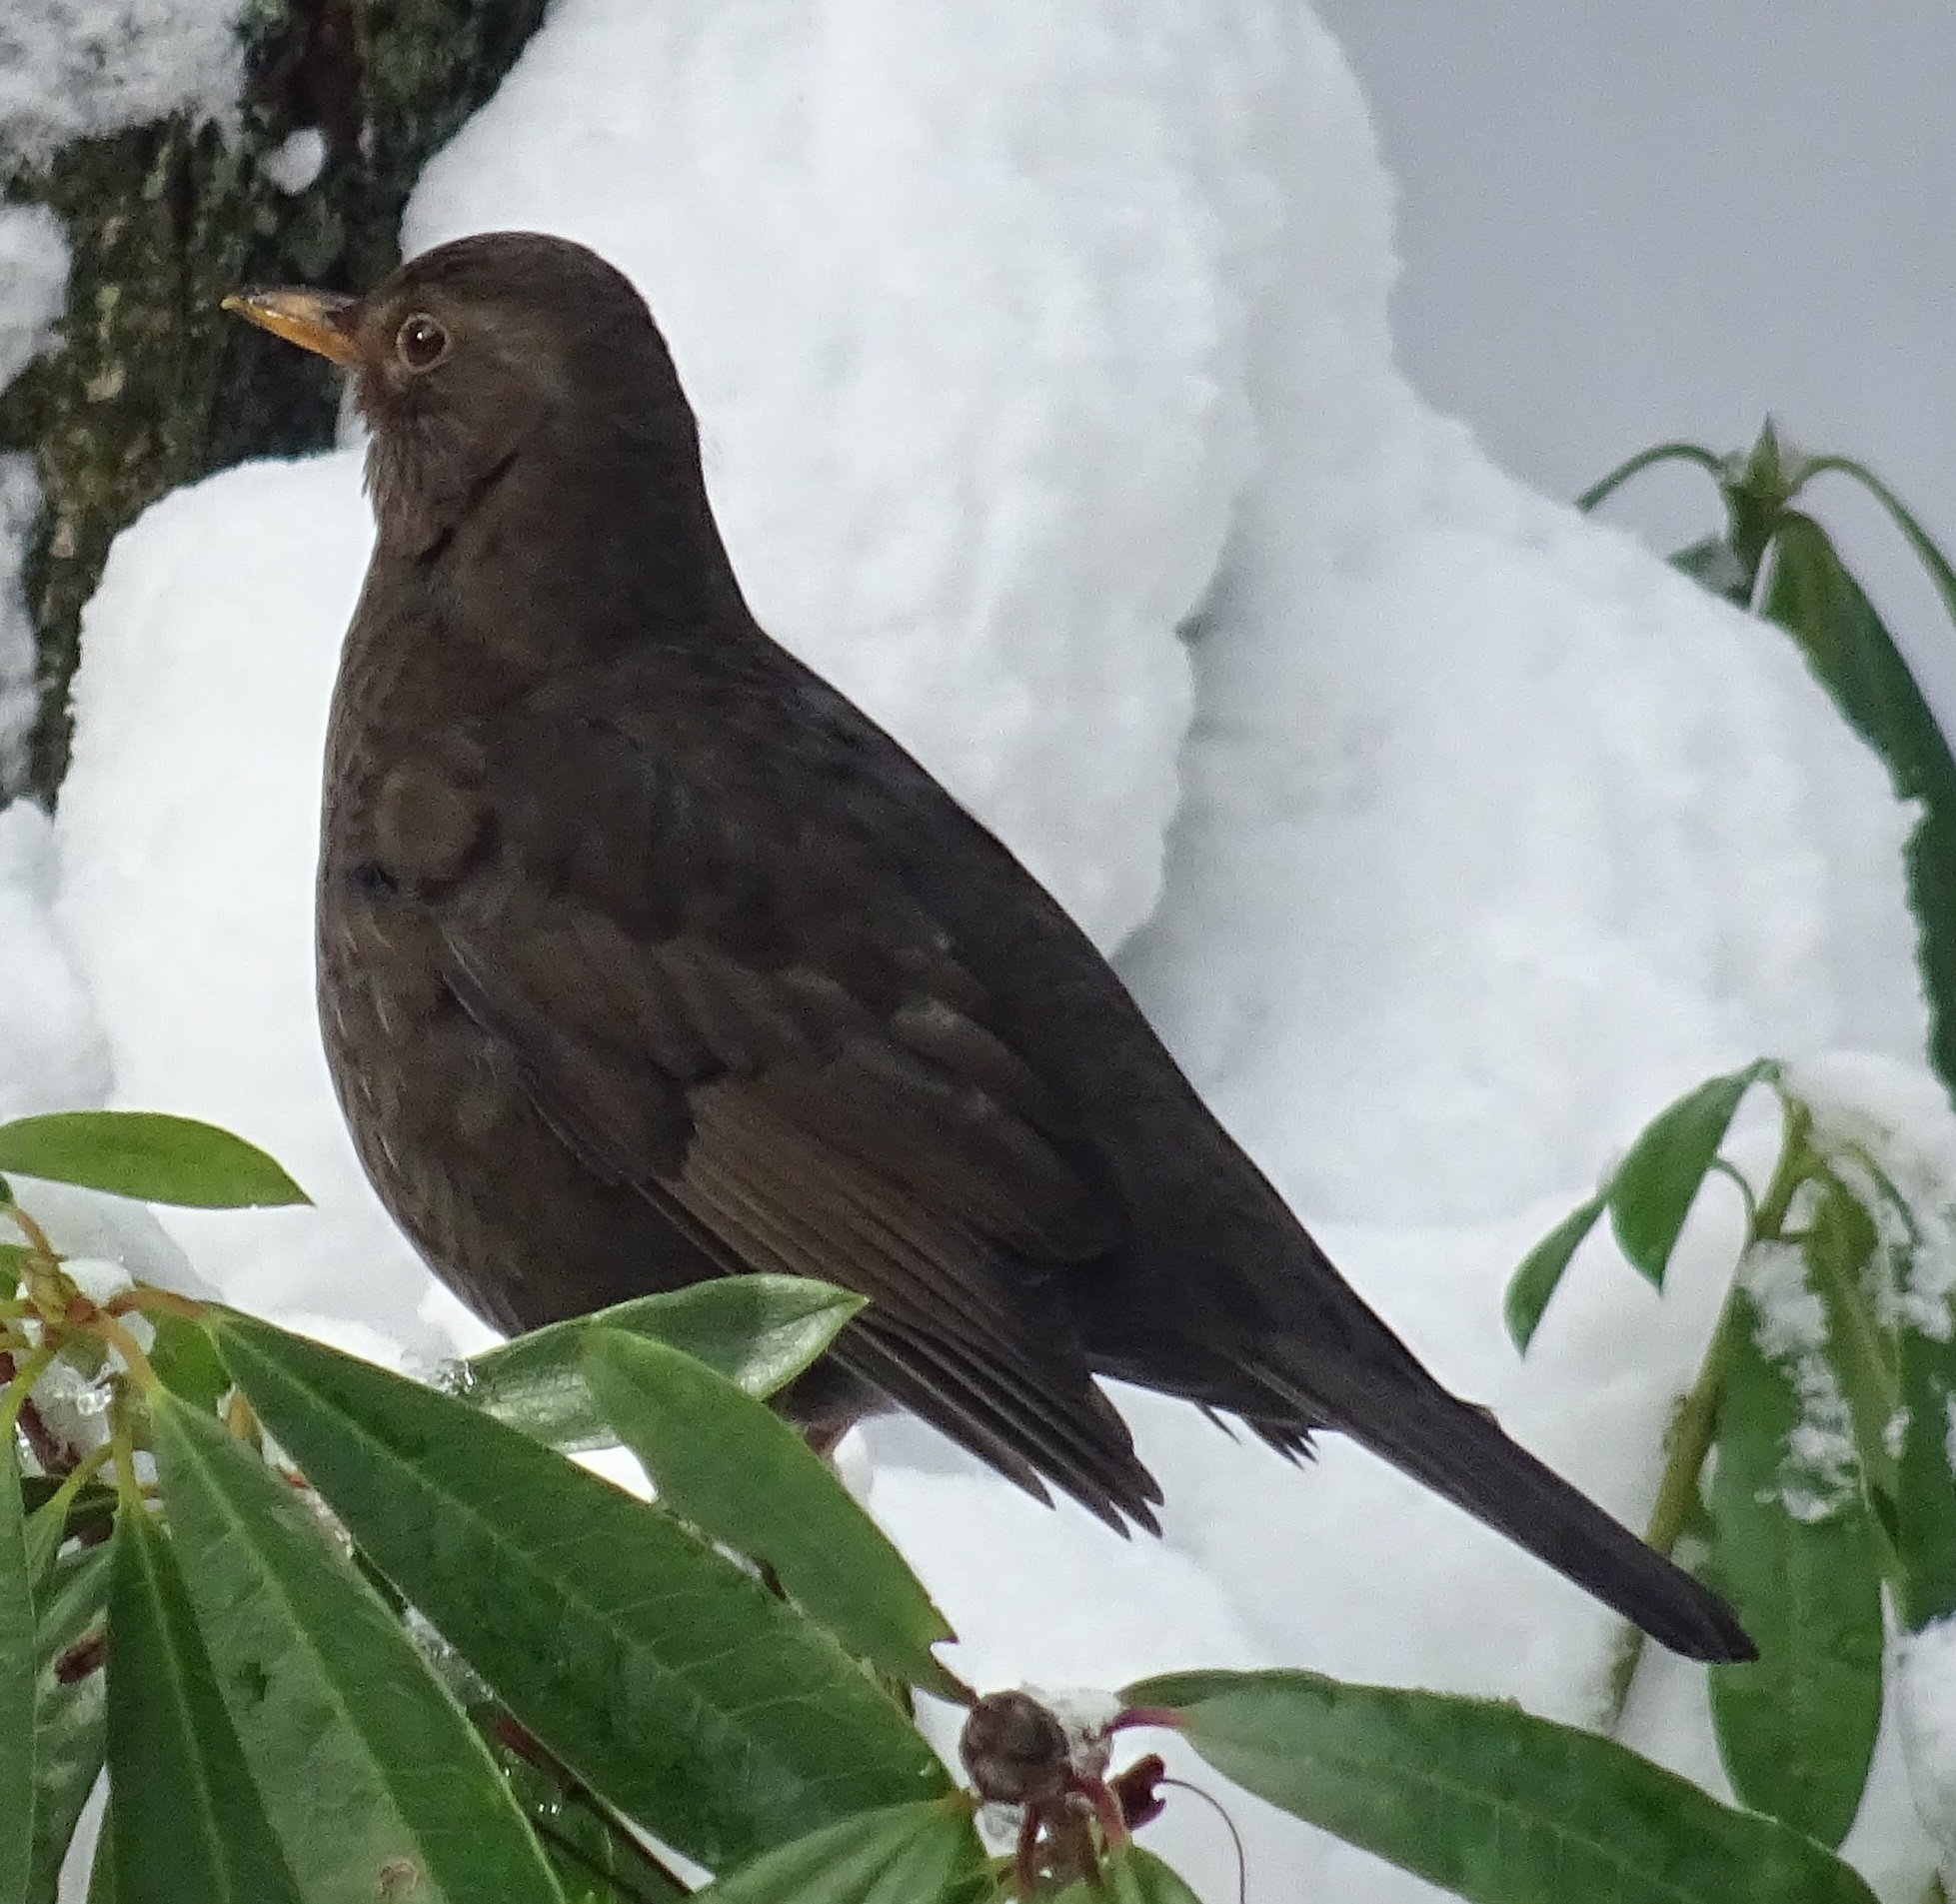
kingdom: Animalia
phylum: Chordata
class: Aves
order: Passeriformes
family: Turdidae
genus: Turdus
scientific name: Turdus merula
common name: Common blackbird
